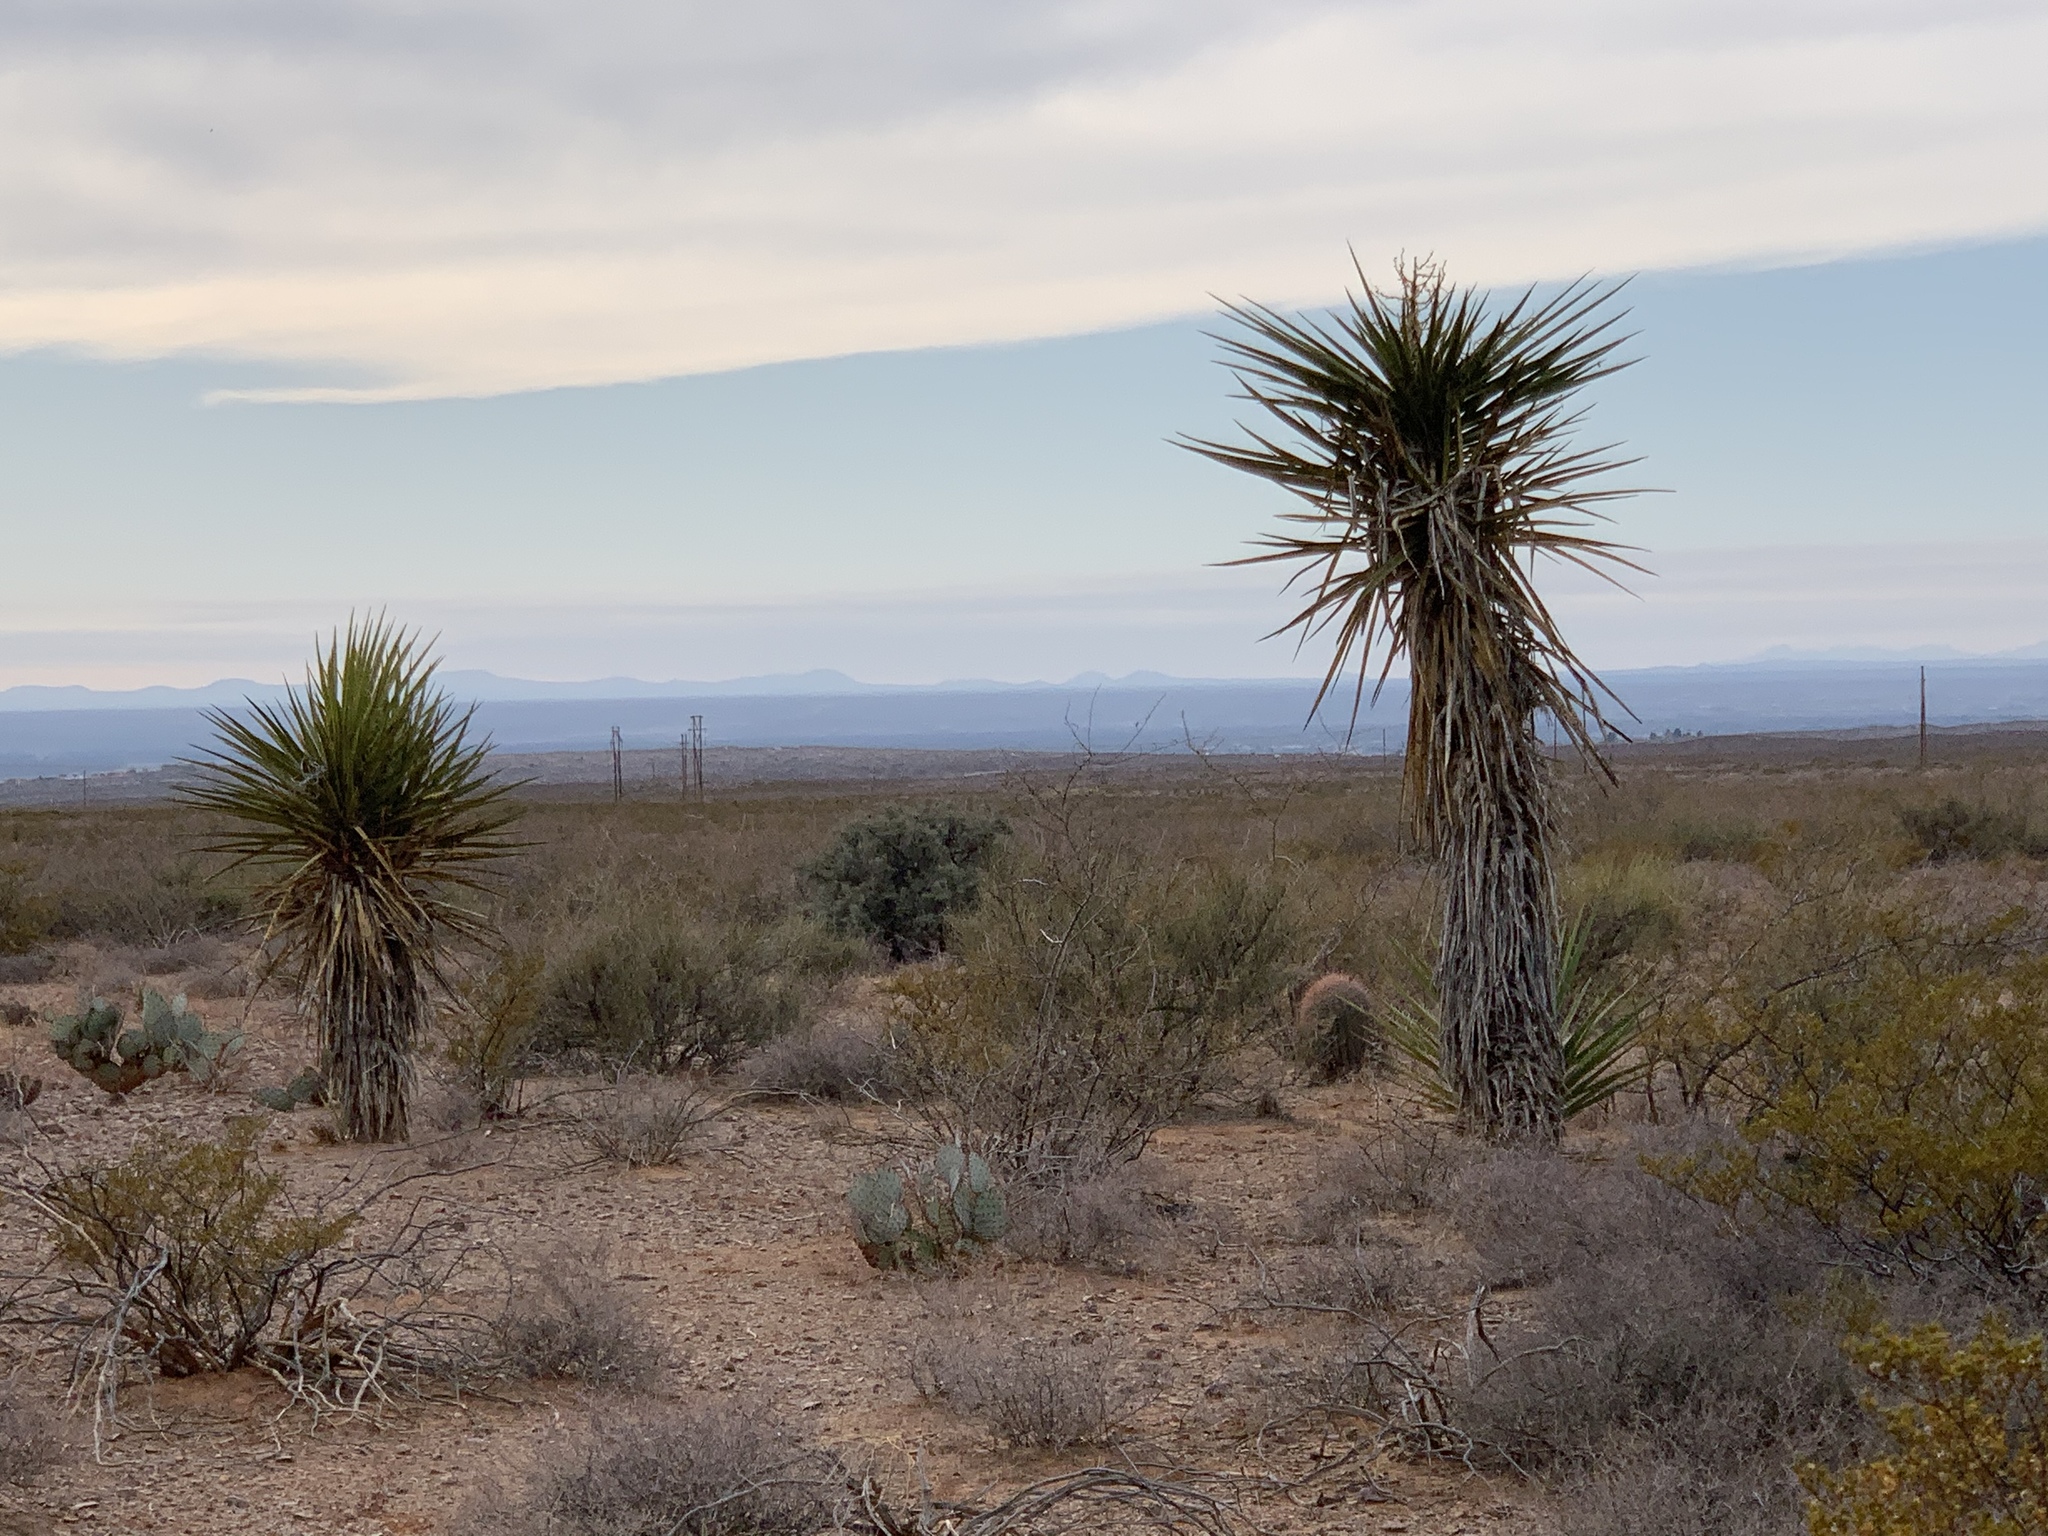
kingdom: Plantae
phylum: Tracheophyta
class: Liliopsida
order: Asparagales
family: Asparagaceae
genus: Yucca
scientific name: Yucca treculiana
